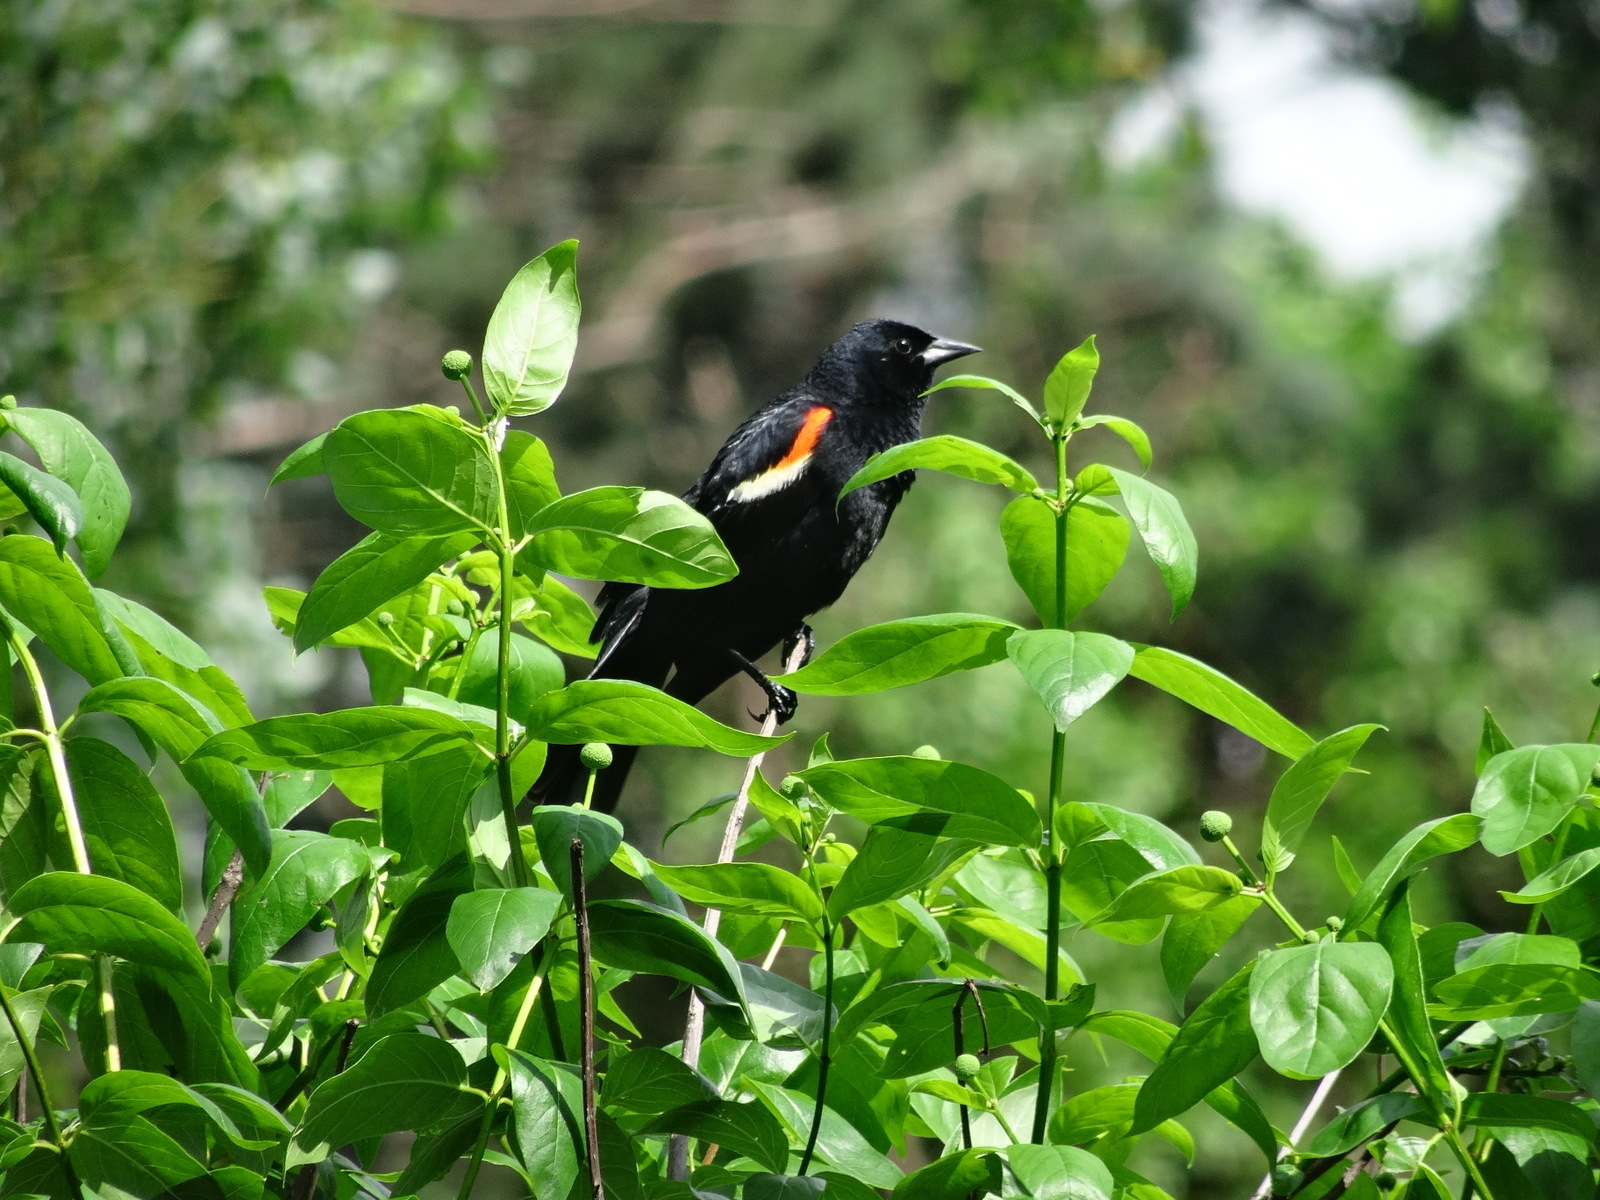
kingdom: Animalia
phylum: Chordata
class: Aves
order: Passeriformes
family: Icteridae
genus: Agelaius
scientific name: Agelaius phoeniceus
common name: Red-winged blackbird
